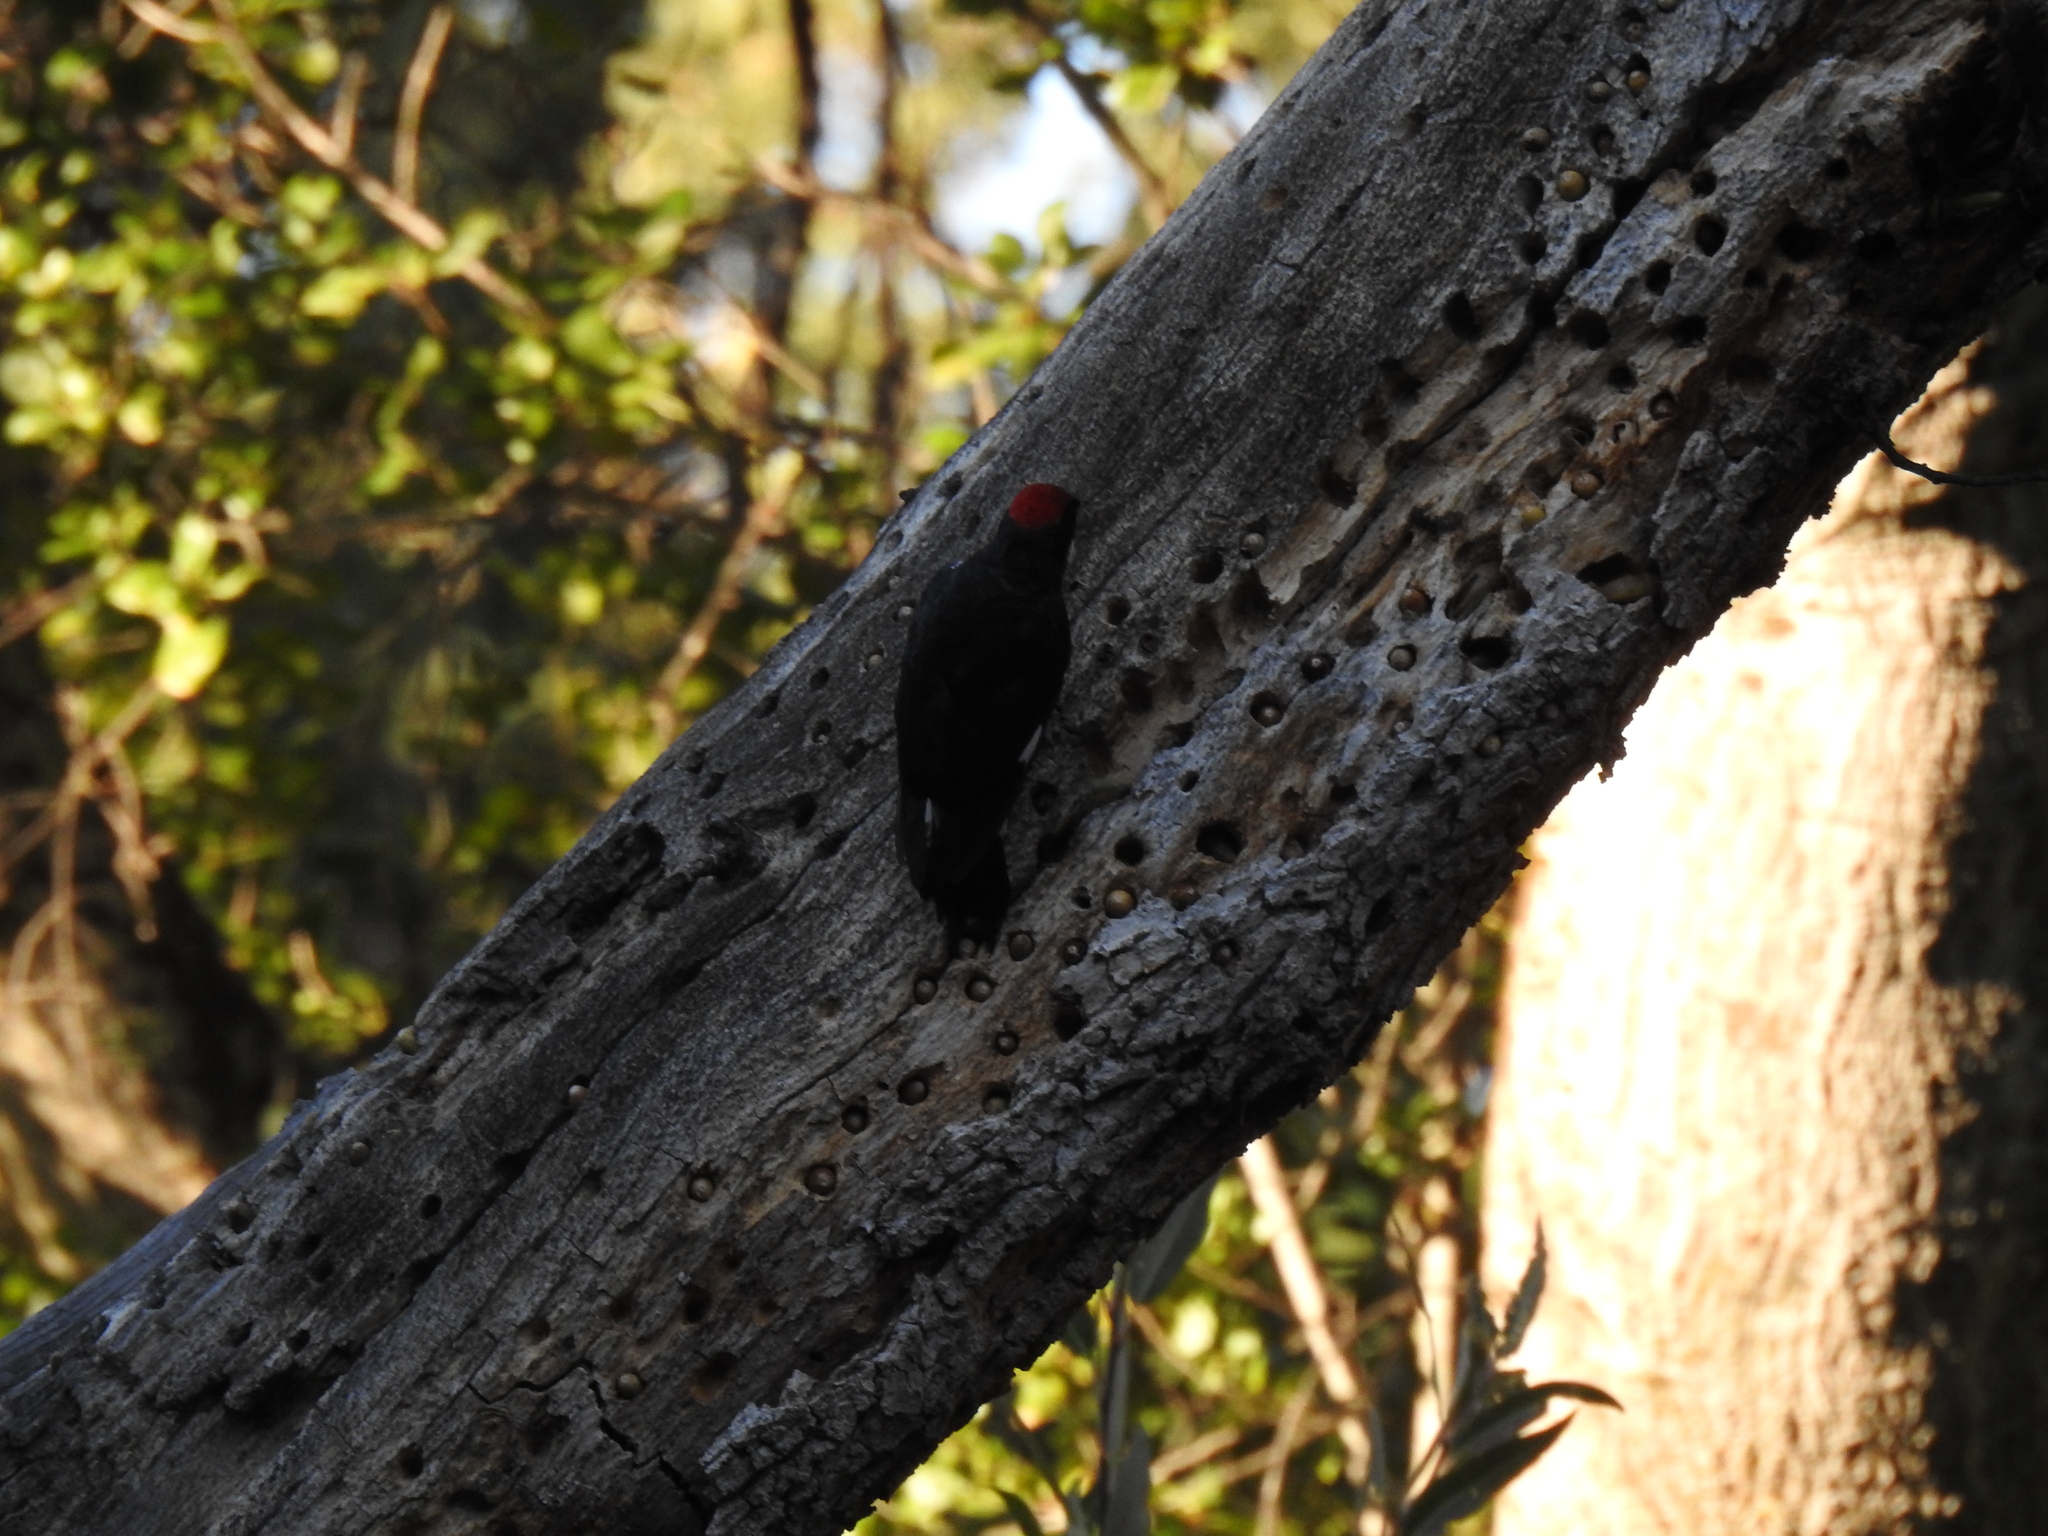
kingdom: Animalia
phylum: Chordata
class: Aves
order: Piciformes
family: Picidae
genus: Melanerpes
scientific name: Melanerpes formicivorus
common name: Acorn woodpecker
